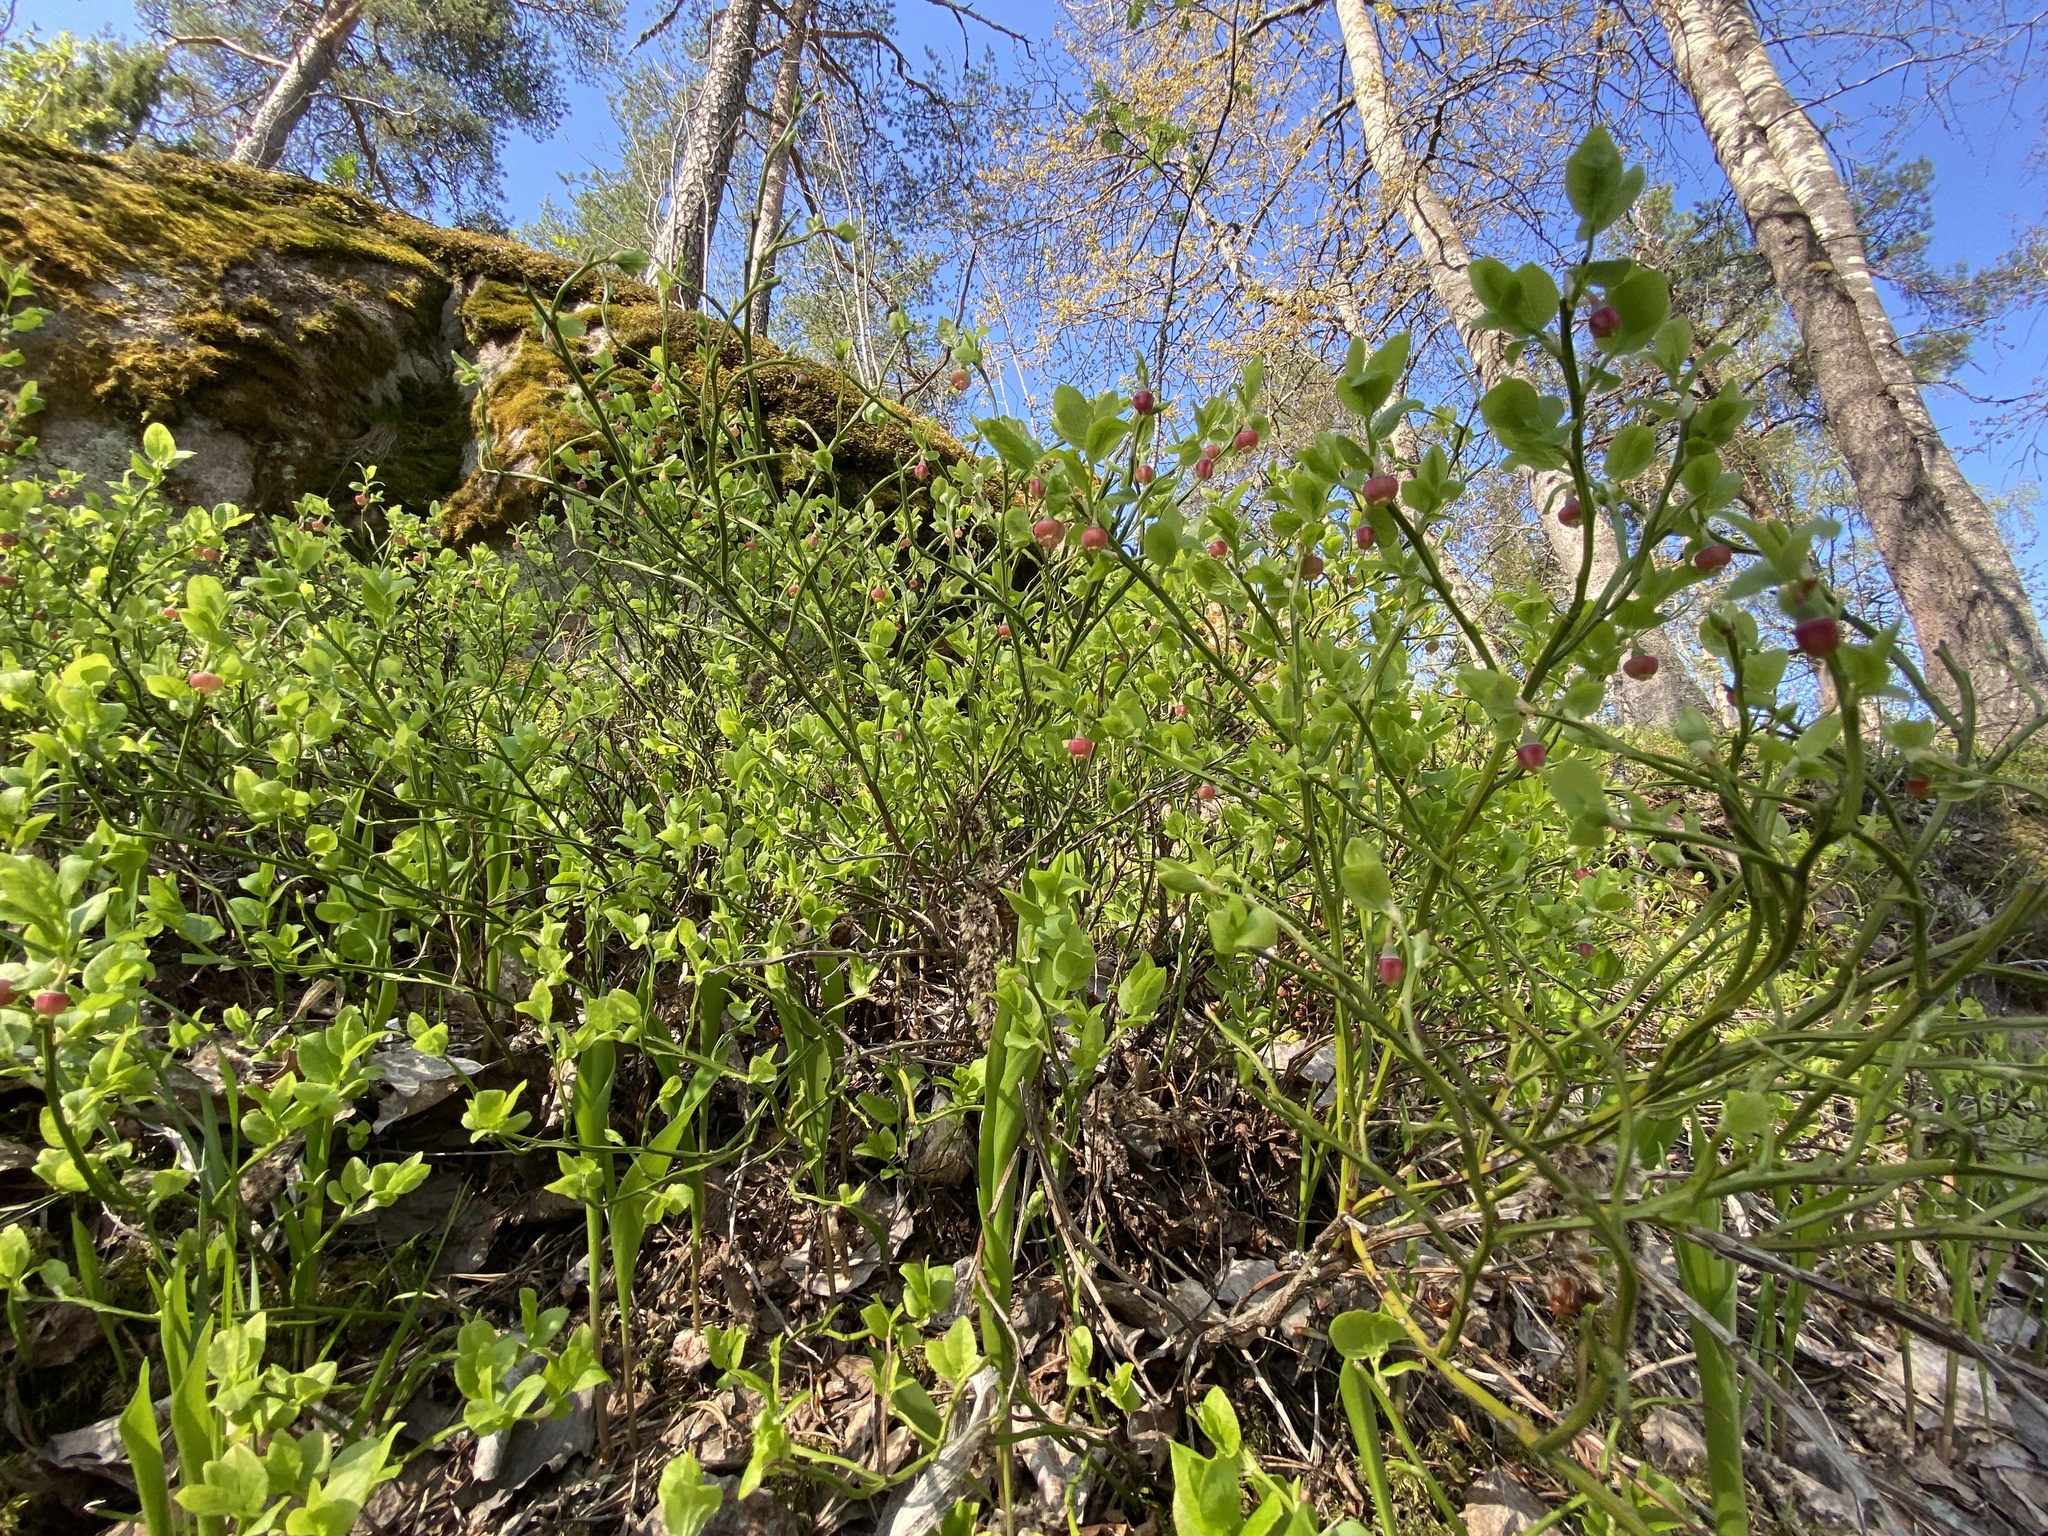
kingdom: Plantae
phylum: Tracheophyta
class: Magnoliopsida
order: Ericales
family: Ericaceae
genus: Vaccinium
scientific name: Vaccinium myrtillus
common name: Bilberry
